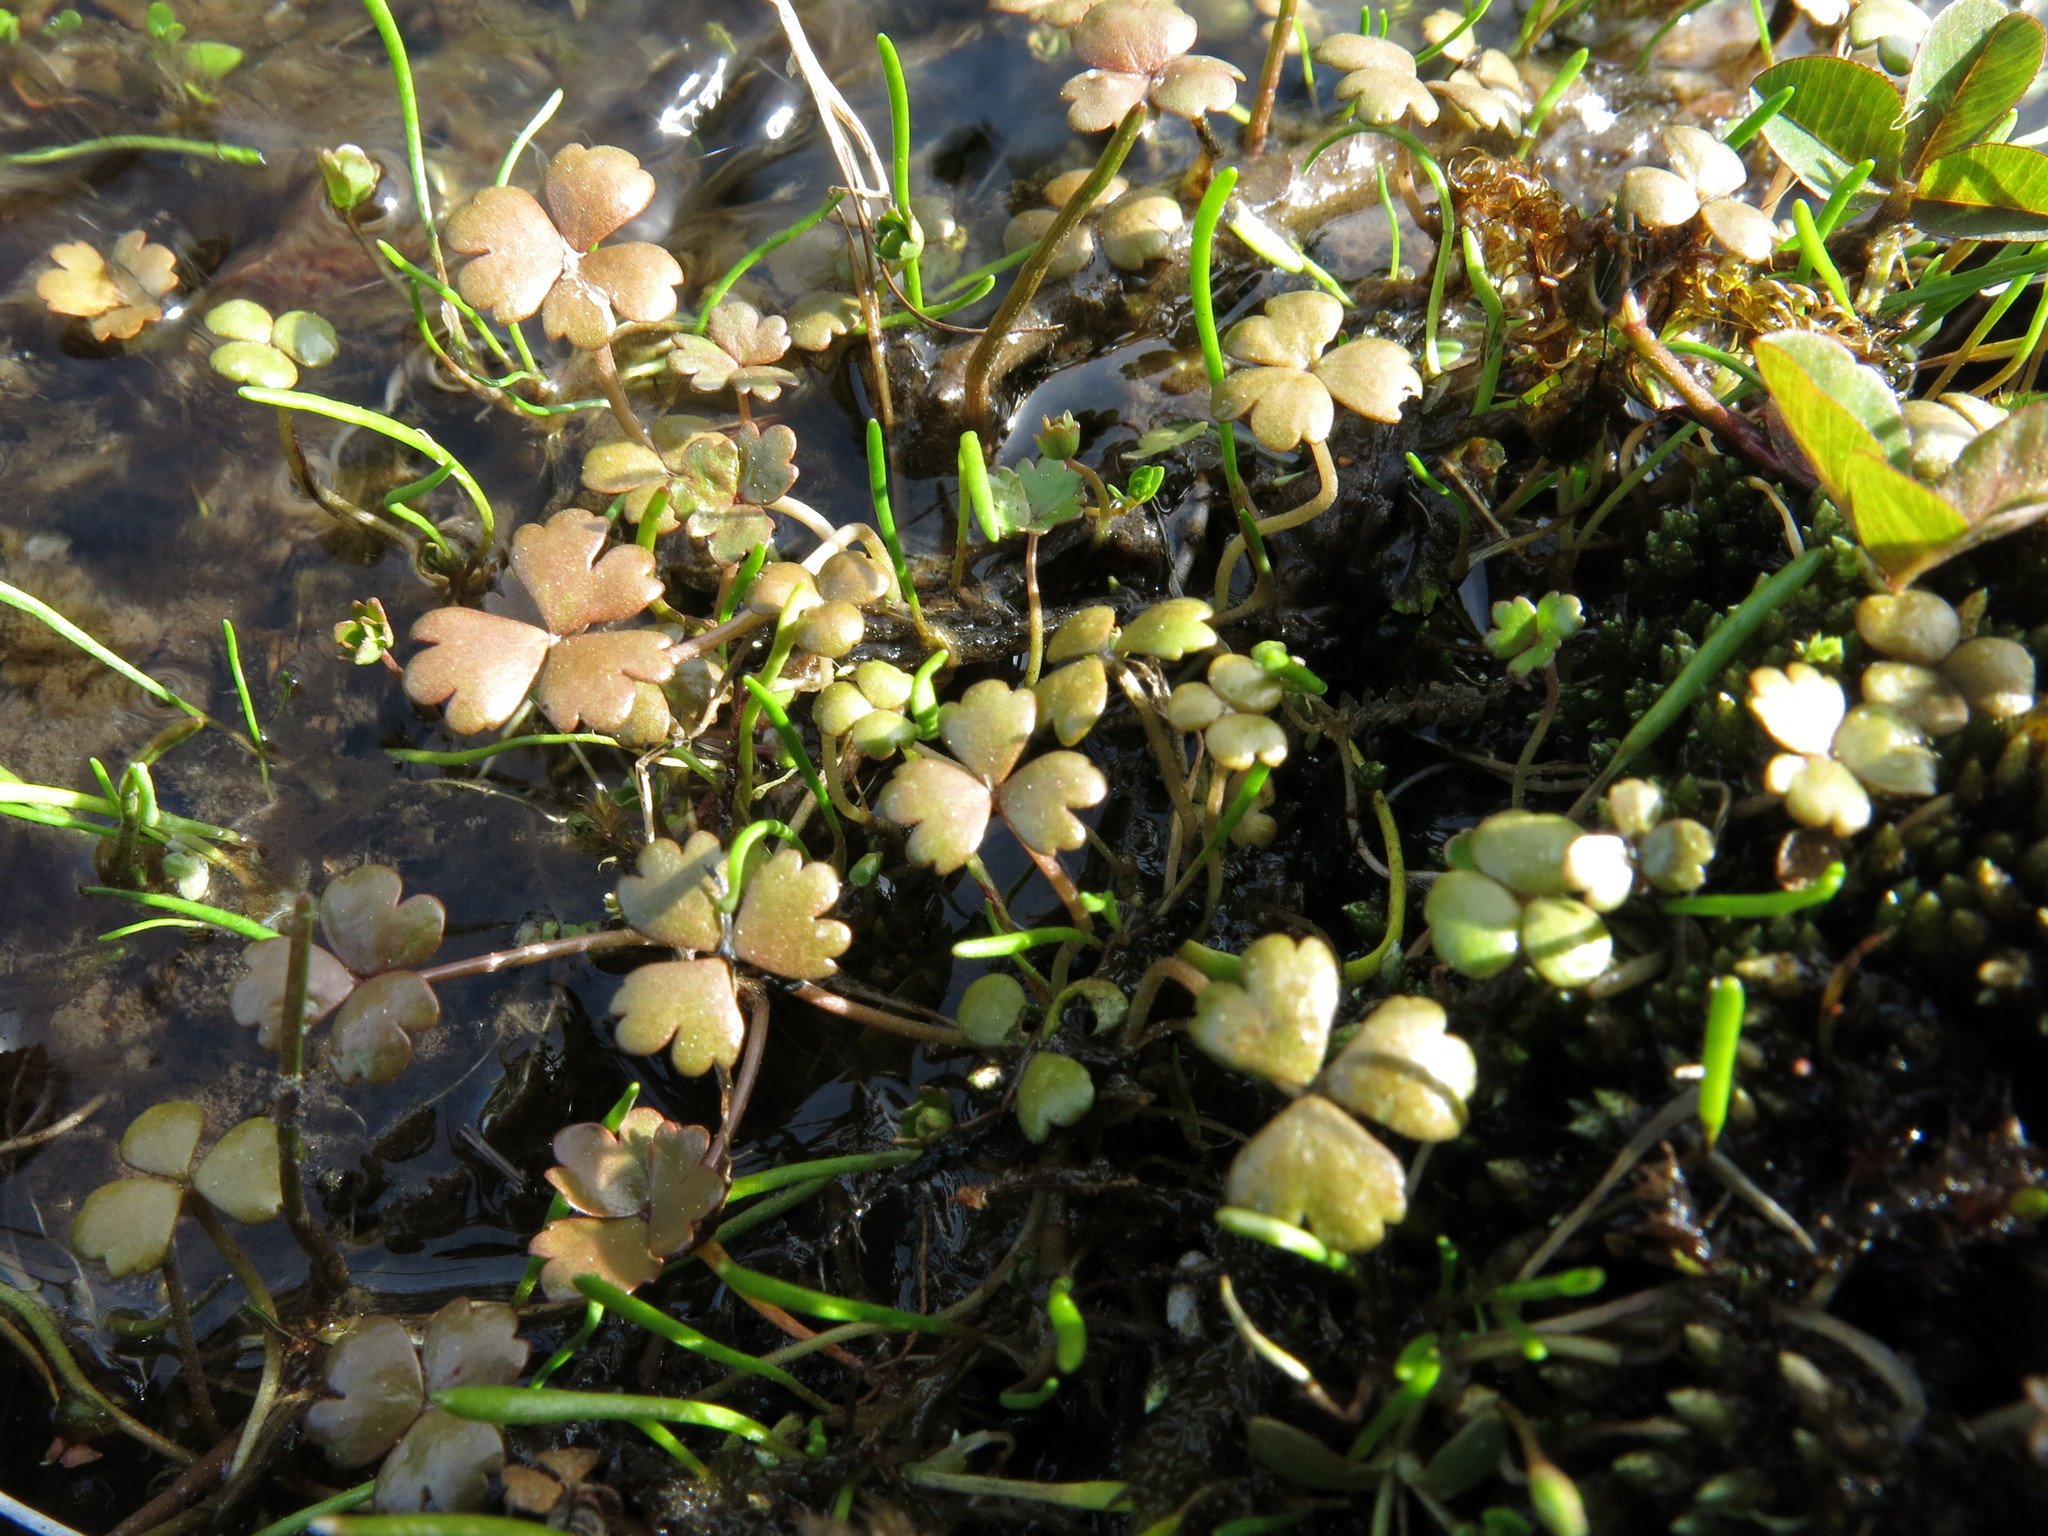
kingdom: Plantae
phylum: Tracheophyta
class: Magnoliopsida
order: Apiales
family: Araliaceae
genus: Hydrocotyle
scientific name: Hydrocotyle sulcata
